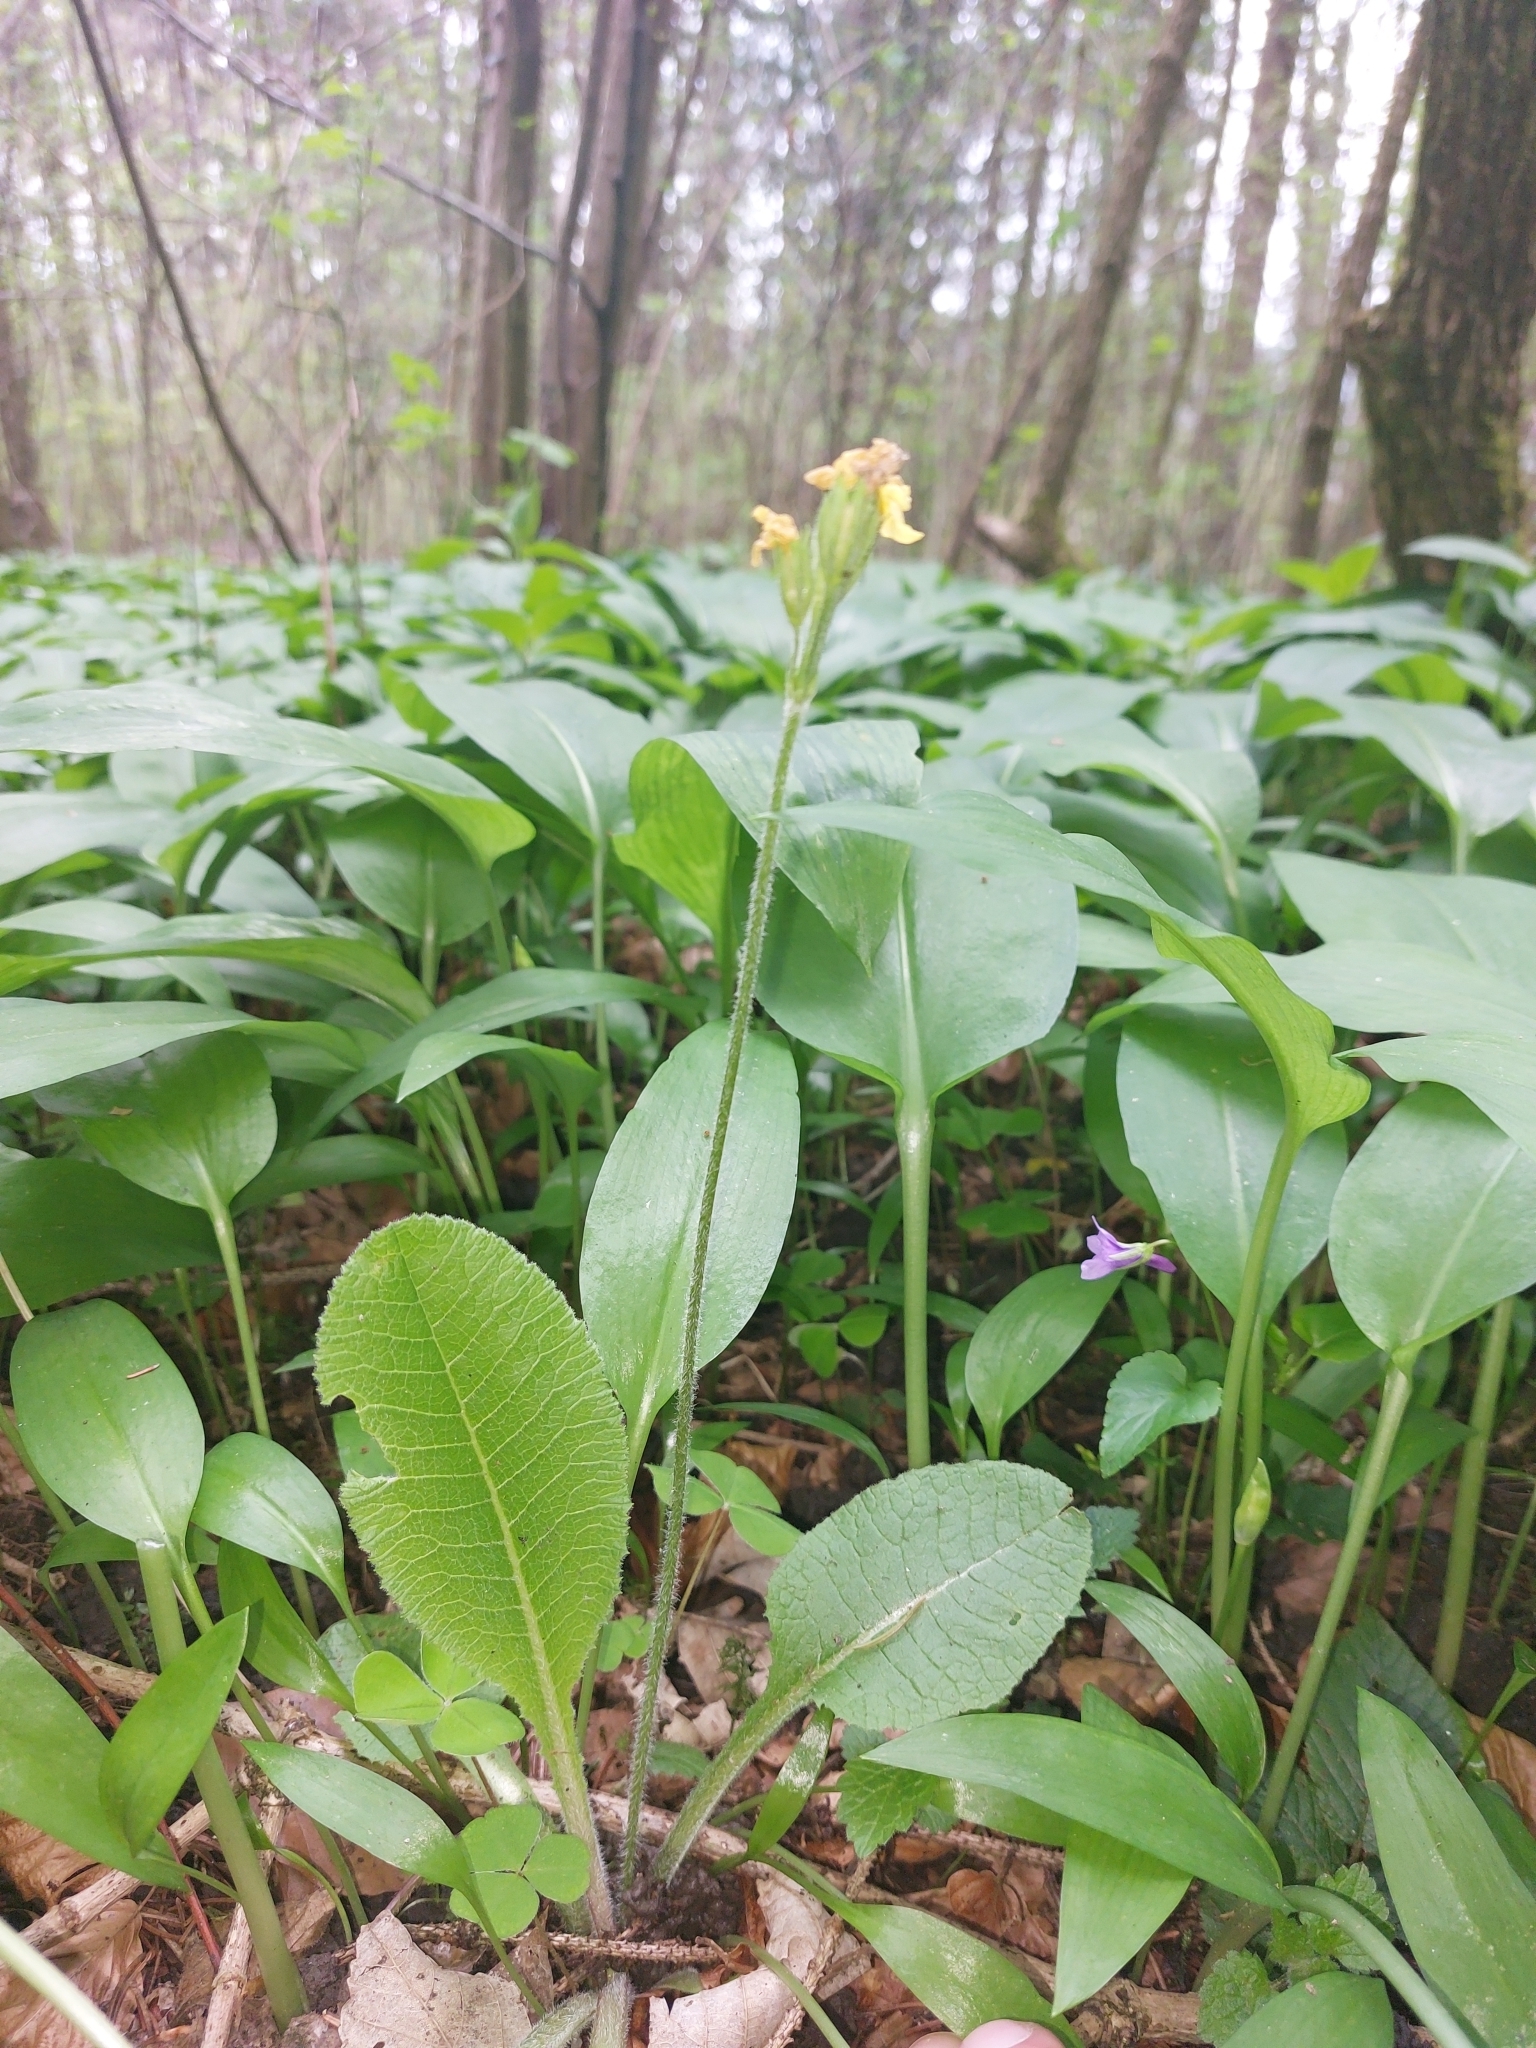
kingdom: Plantae
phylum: Tracheophyta
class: Magnoliopsida
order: Ericales
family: Primulaceae
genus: Primula
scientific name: Primula elatior
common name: Oxlip
